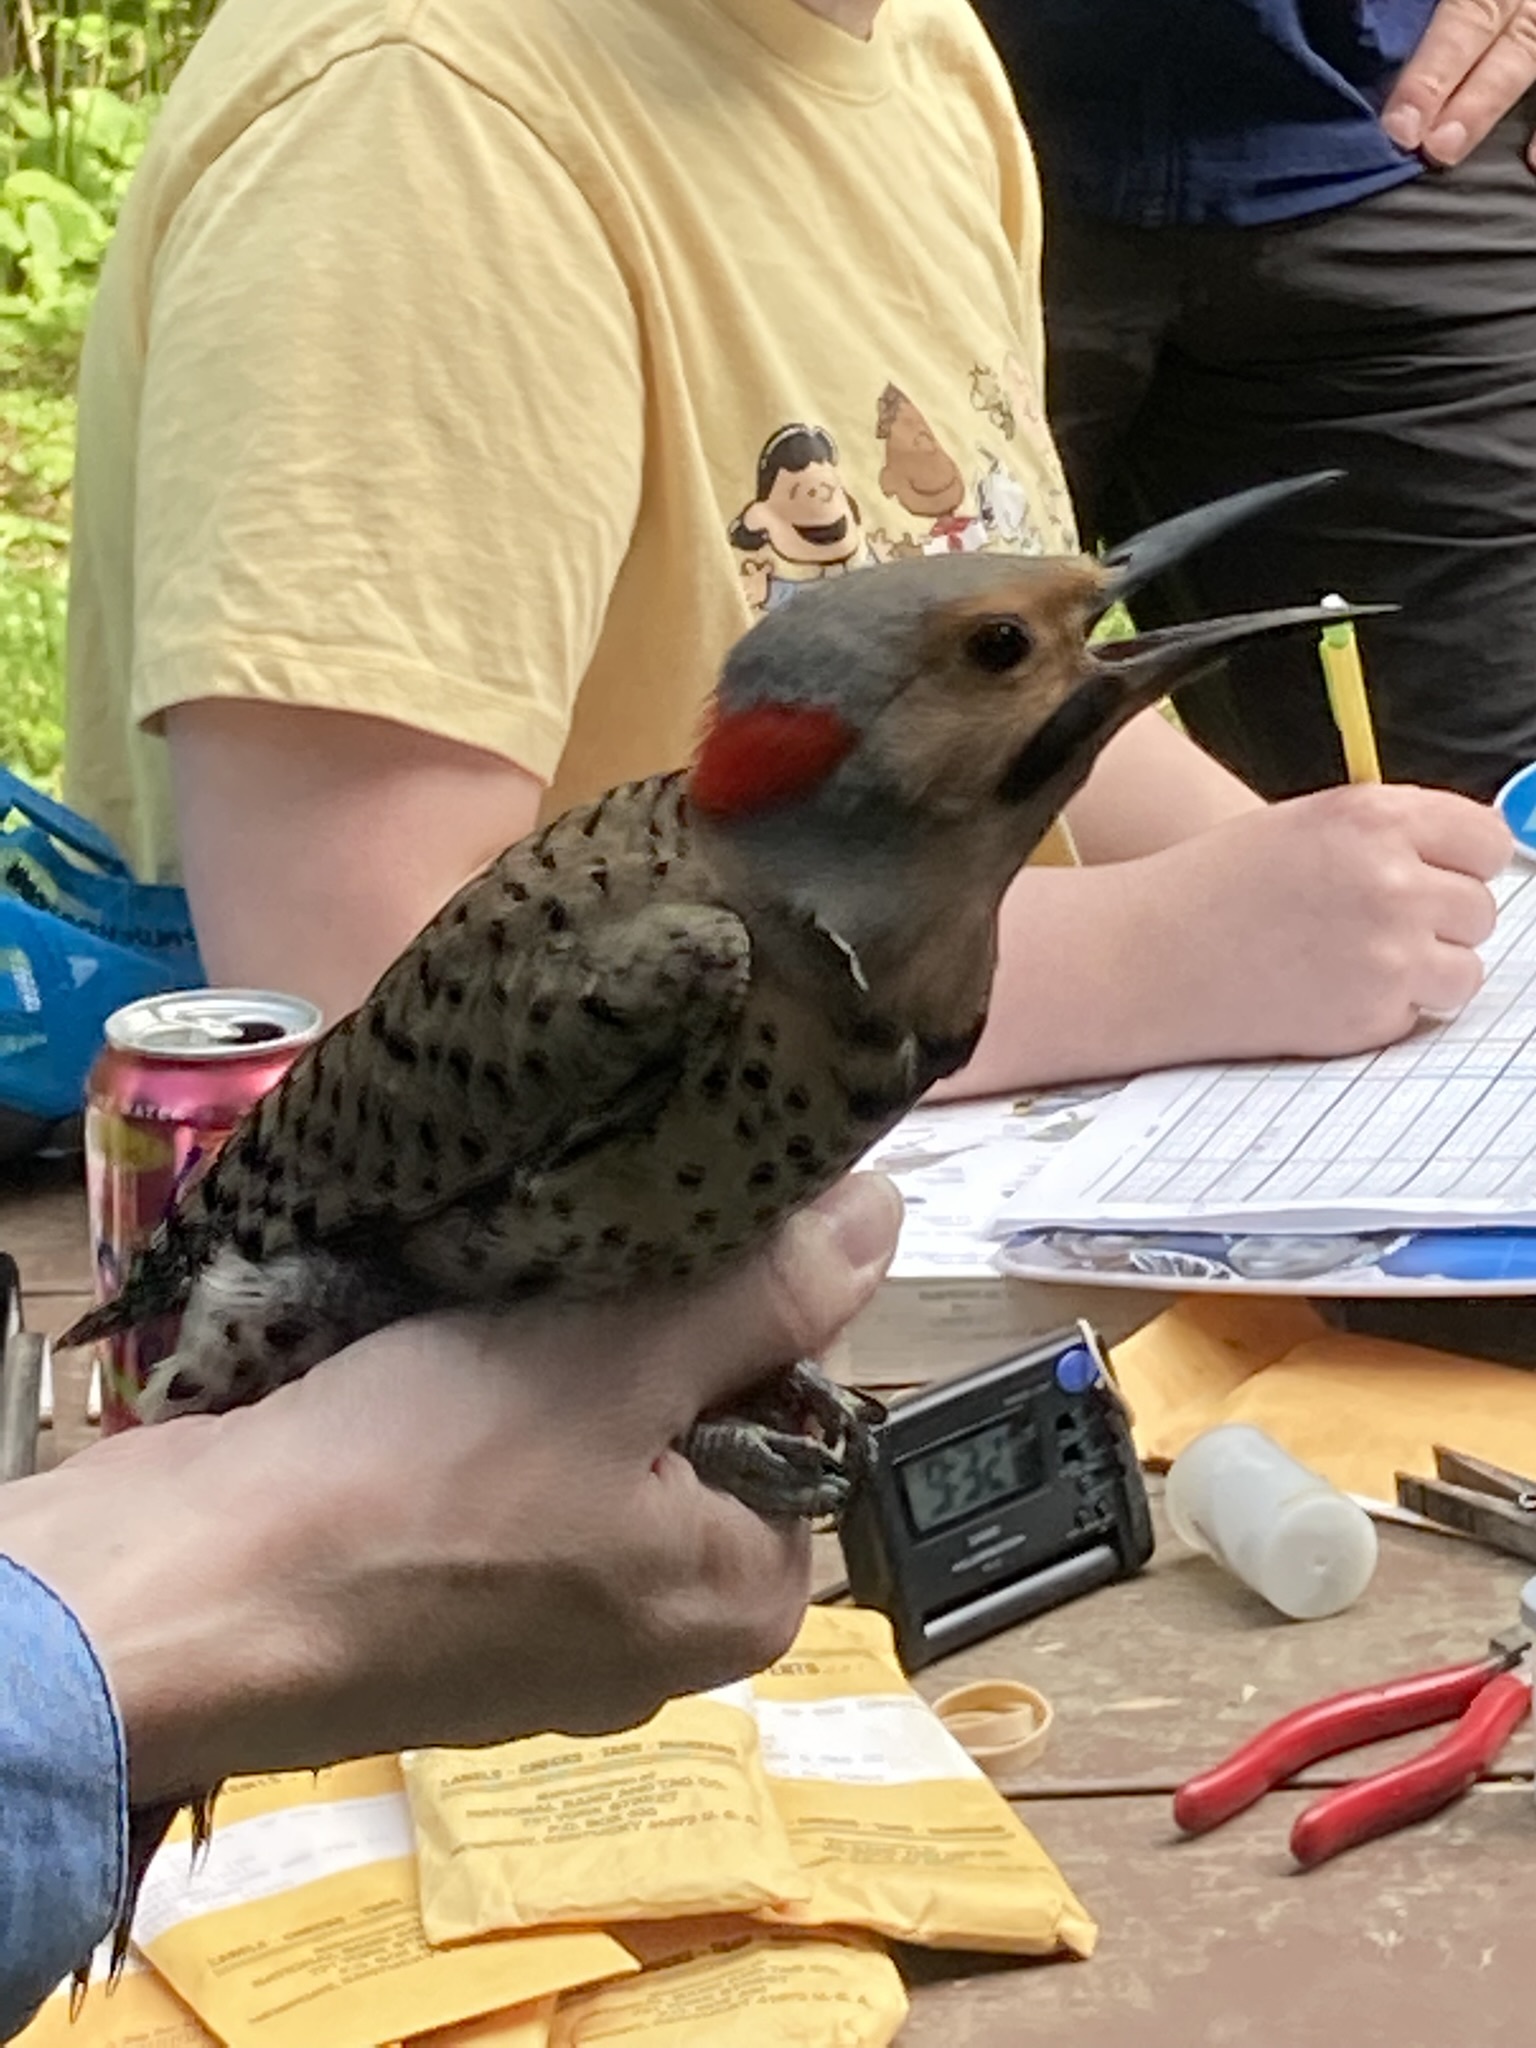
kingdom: Animalia
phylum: Chordata
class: Aves
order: Piciformes
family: Picidae
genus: Colaptes
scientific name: Colaptes auratus
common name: Northern flicker
